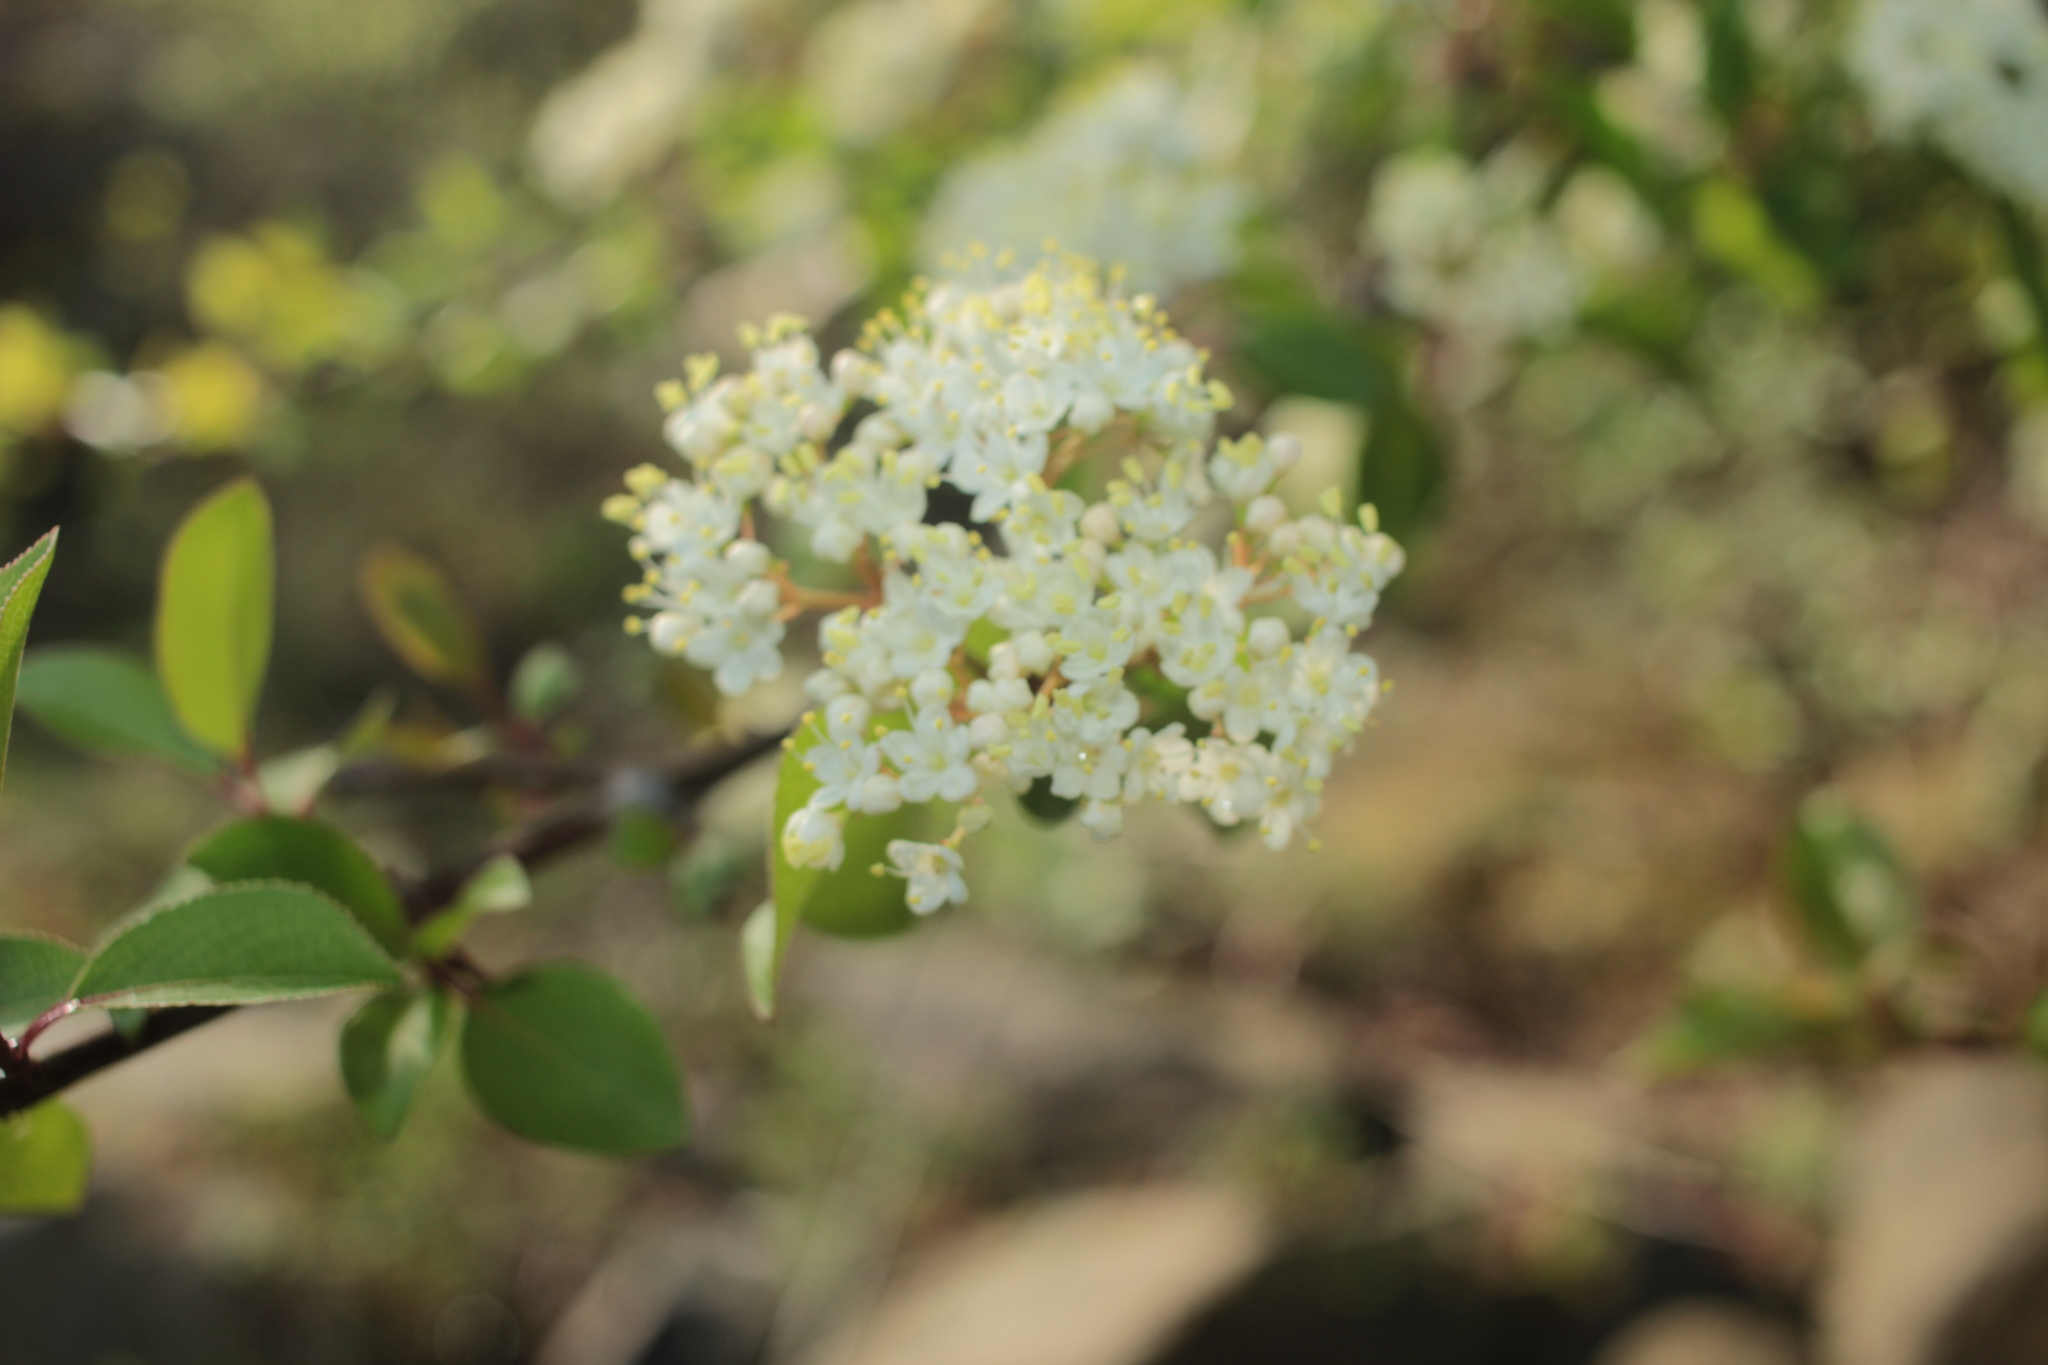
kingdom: Plantae
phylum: Tracheophyta
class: Magnoliopsida
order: Dipsacales
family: Viburnaceae
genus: Viburnum
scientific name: Viburnum prunifolium
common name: Black haw
